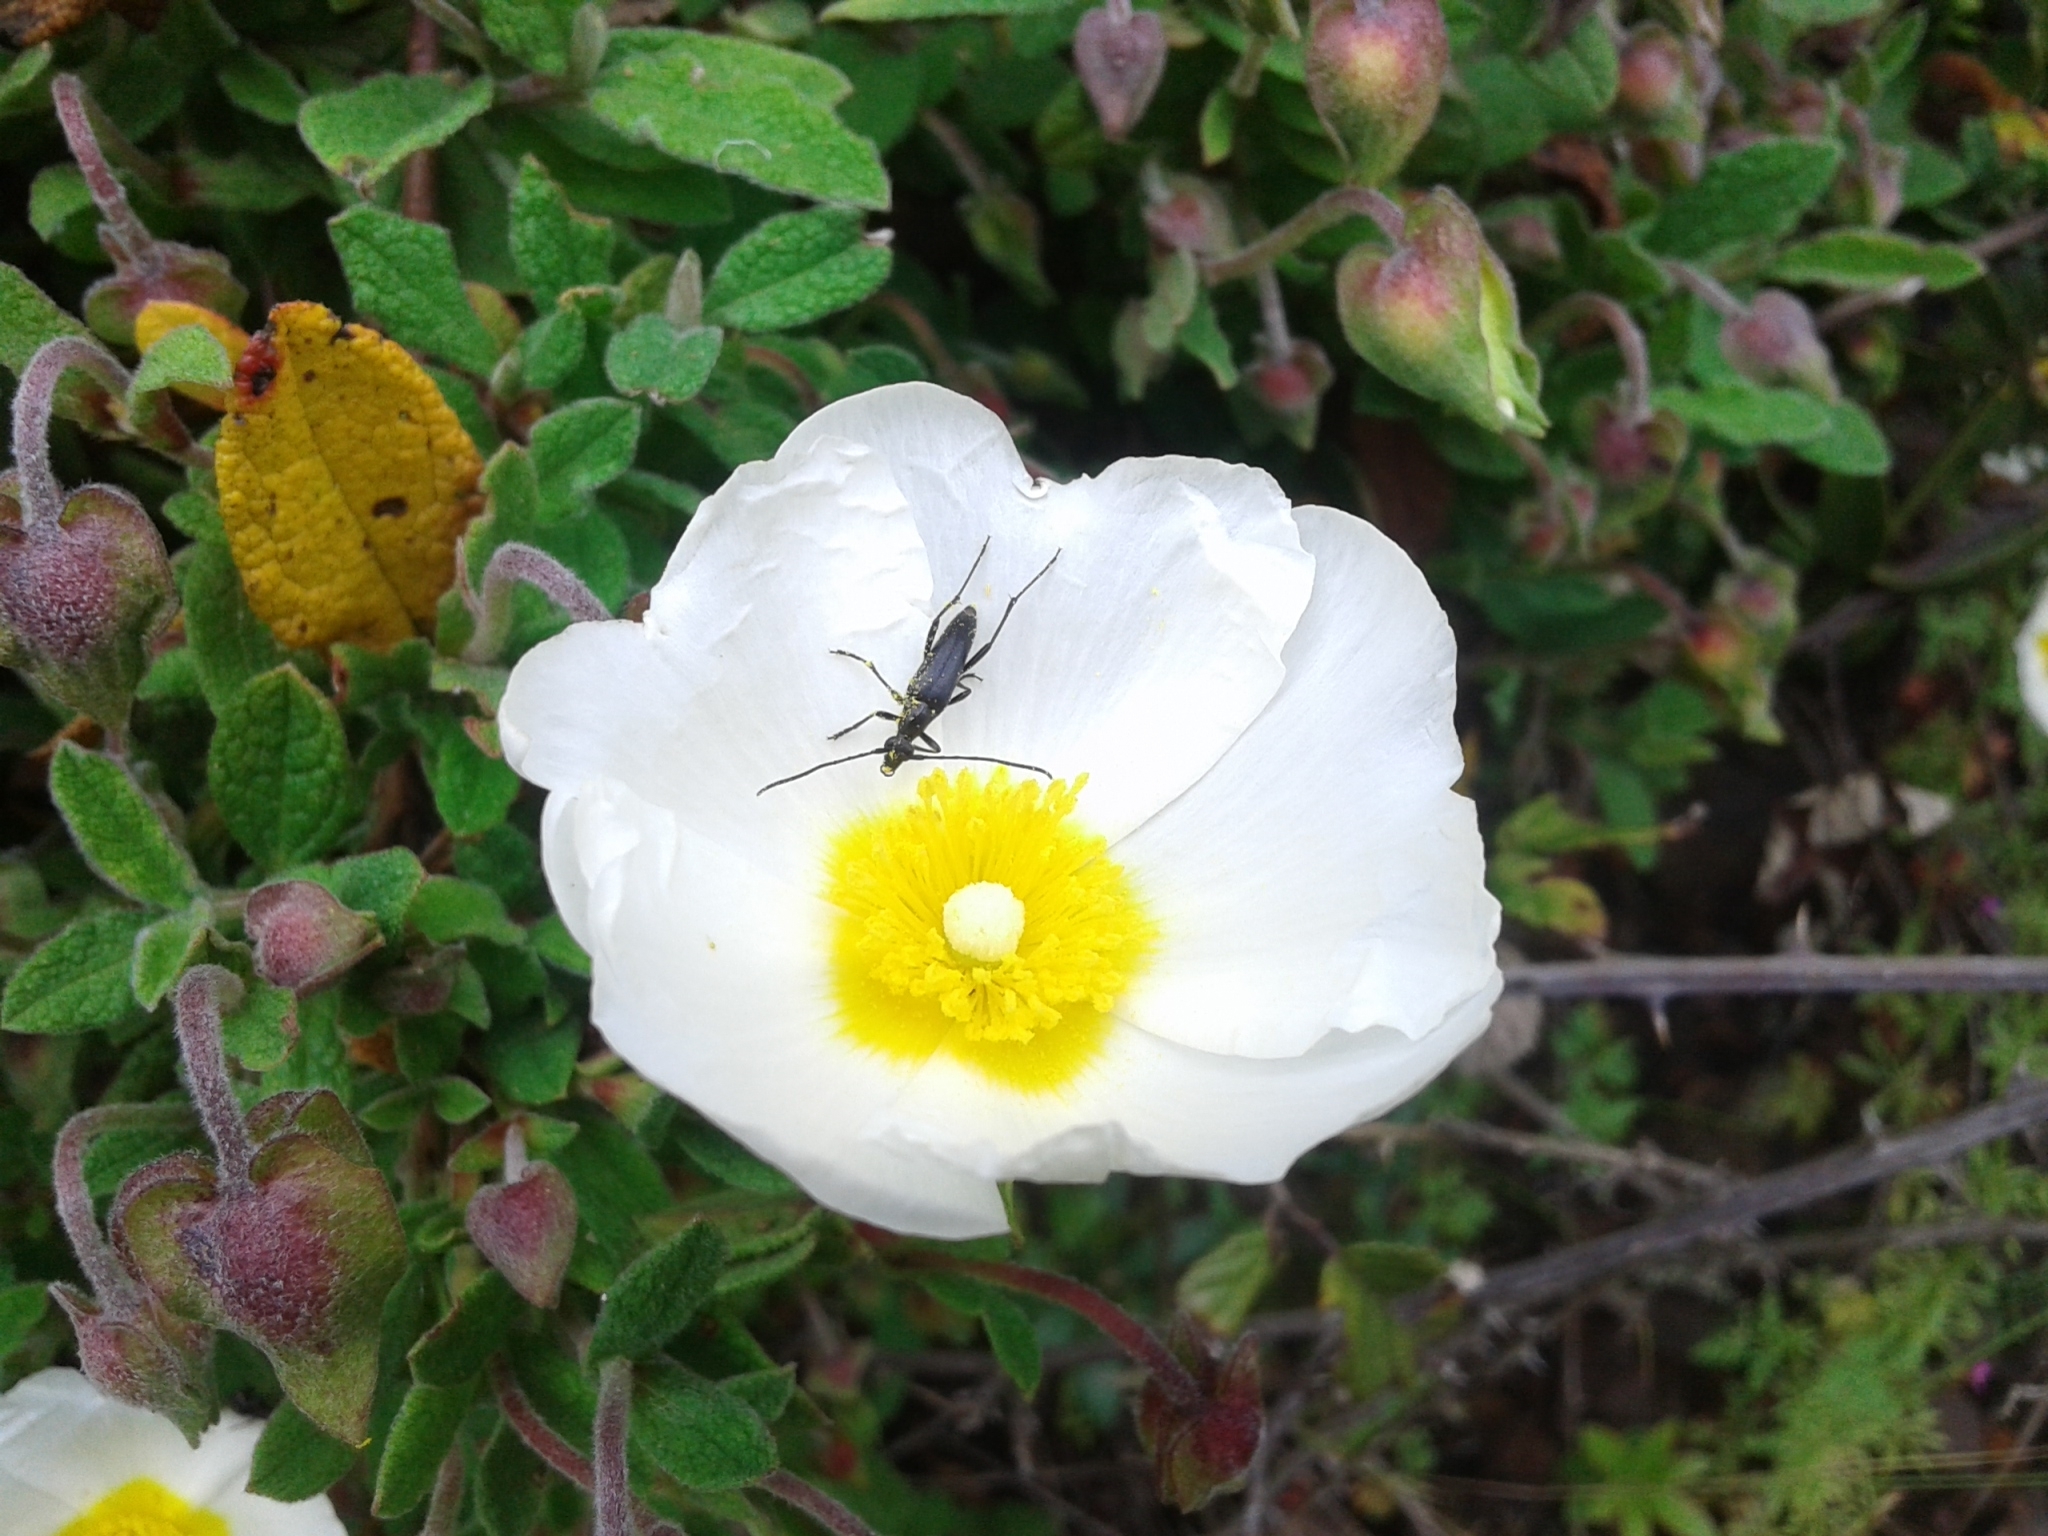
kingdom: Plantae
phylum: Tracheophyta
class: Magnoliopsida
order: Malvales
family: Cistaceae
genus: Cistus
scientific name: Cistus salviifolius
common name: Salvia cistus
